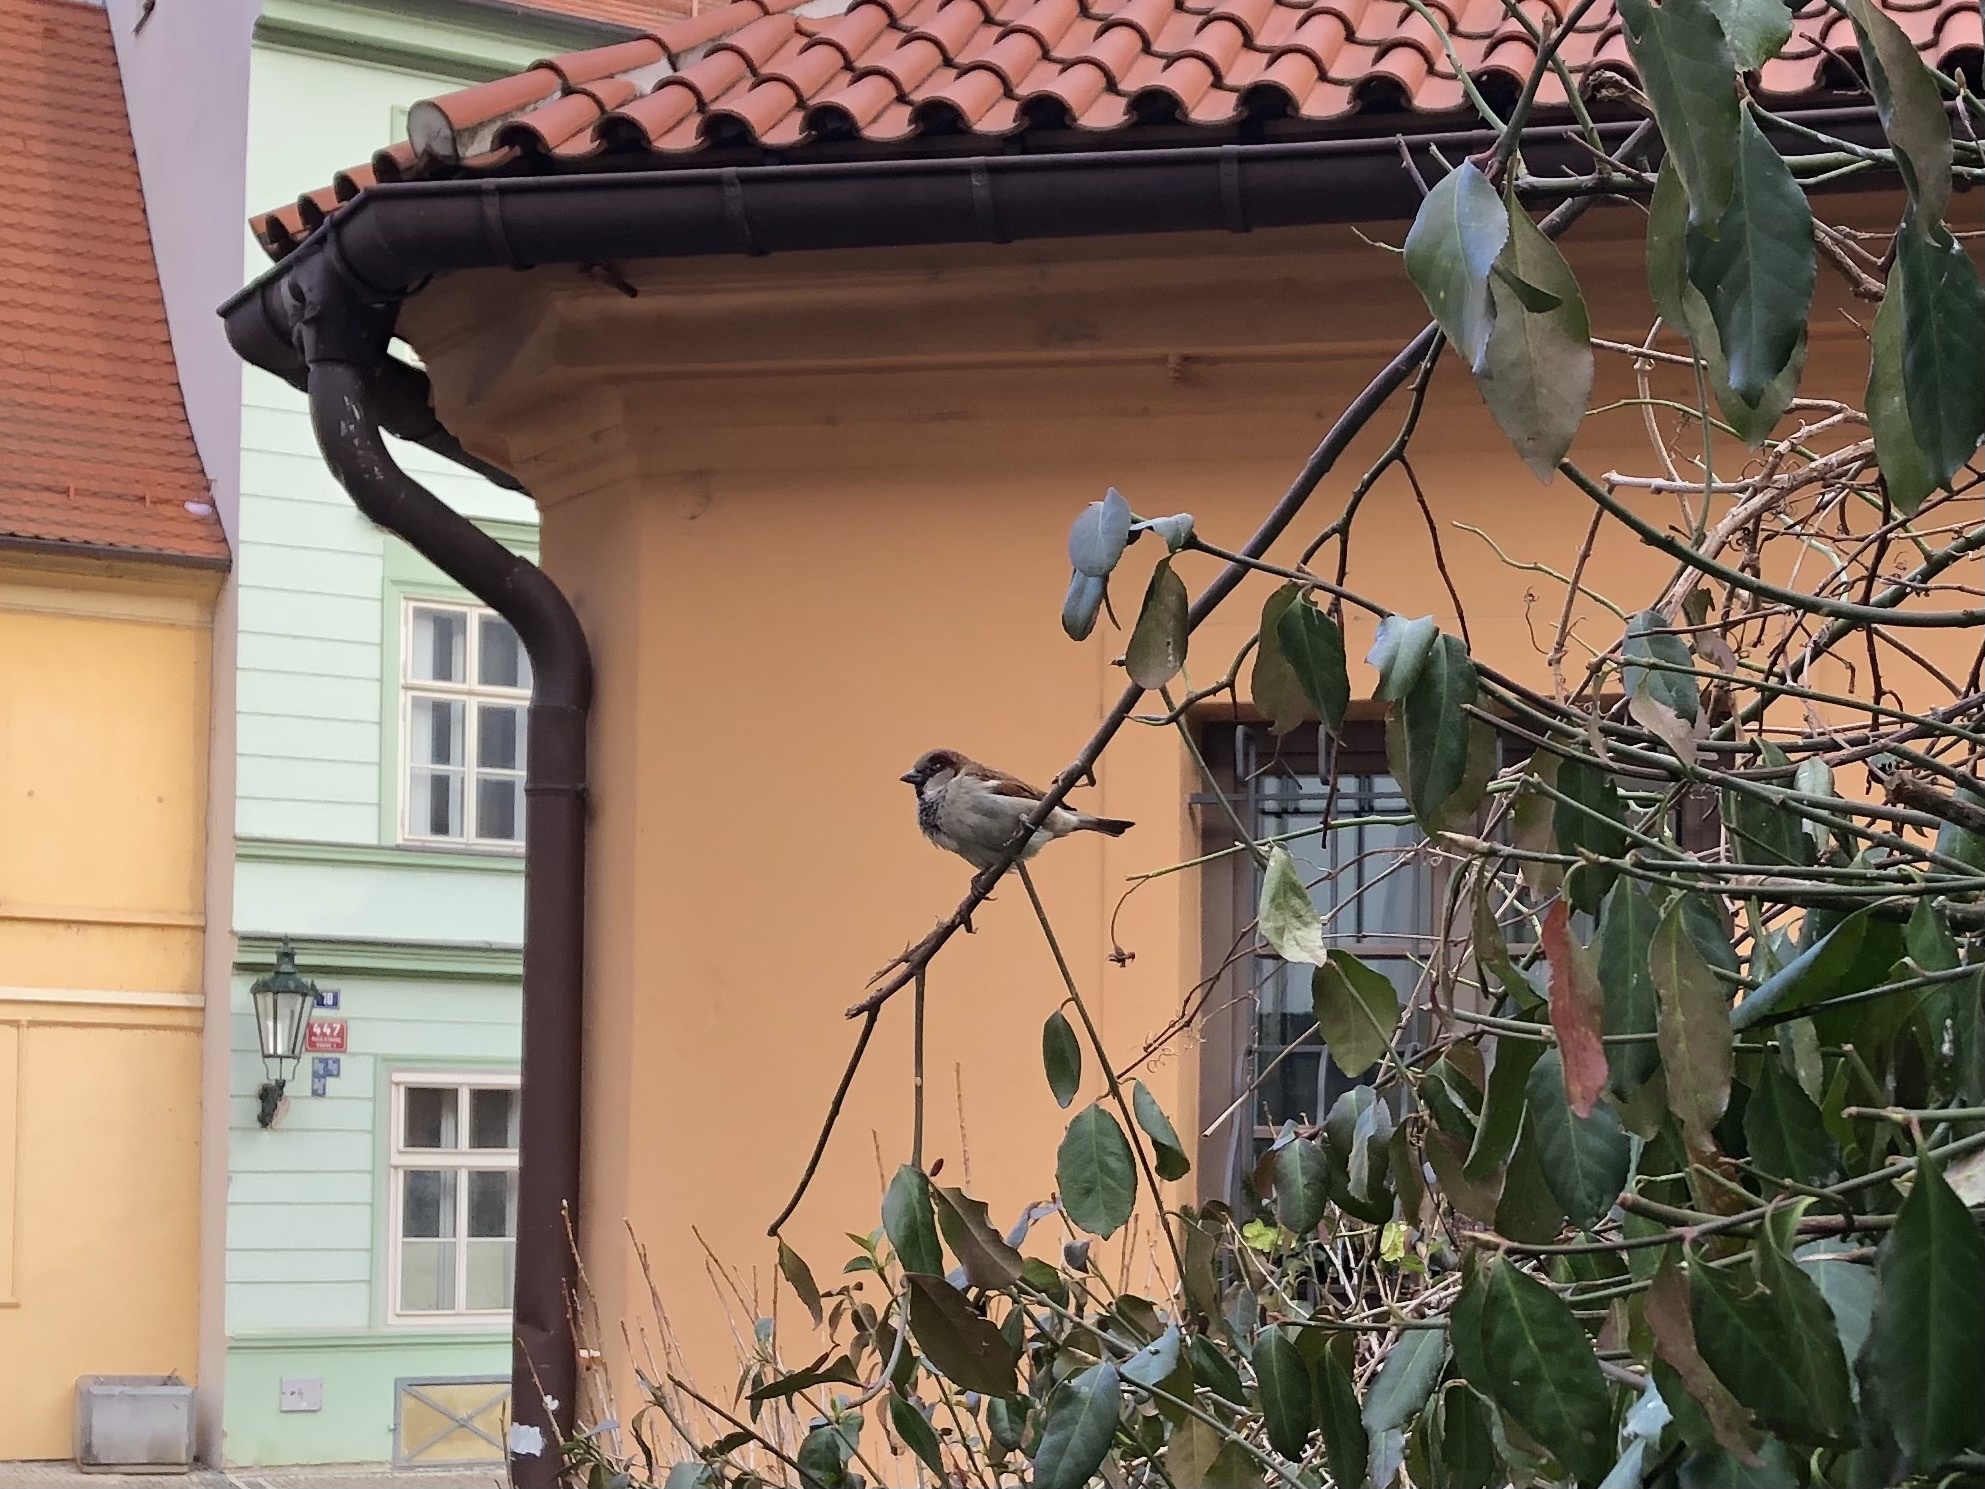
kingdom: Animalia
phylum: Chordata
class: Aves
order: Passeriformes
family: Passeridae
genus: Passer
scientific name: Passer domesticus
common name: House sparrow
